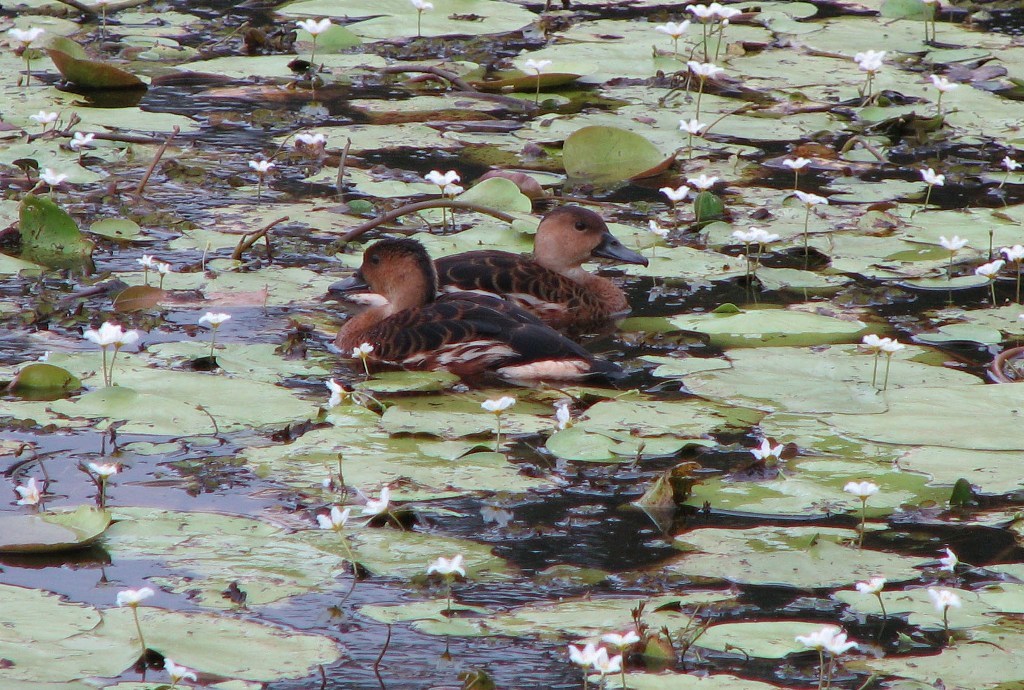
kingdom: Animalia
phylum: Chordata
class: Aves
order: Anseriformes
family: Anatidae
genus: Dendrocygna
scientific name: Dendrocygna arcuata
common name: Wandering whistling-duck
